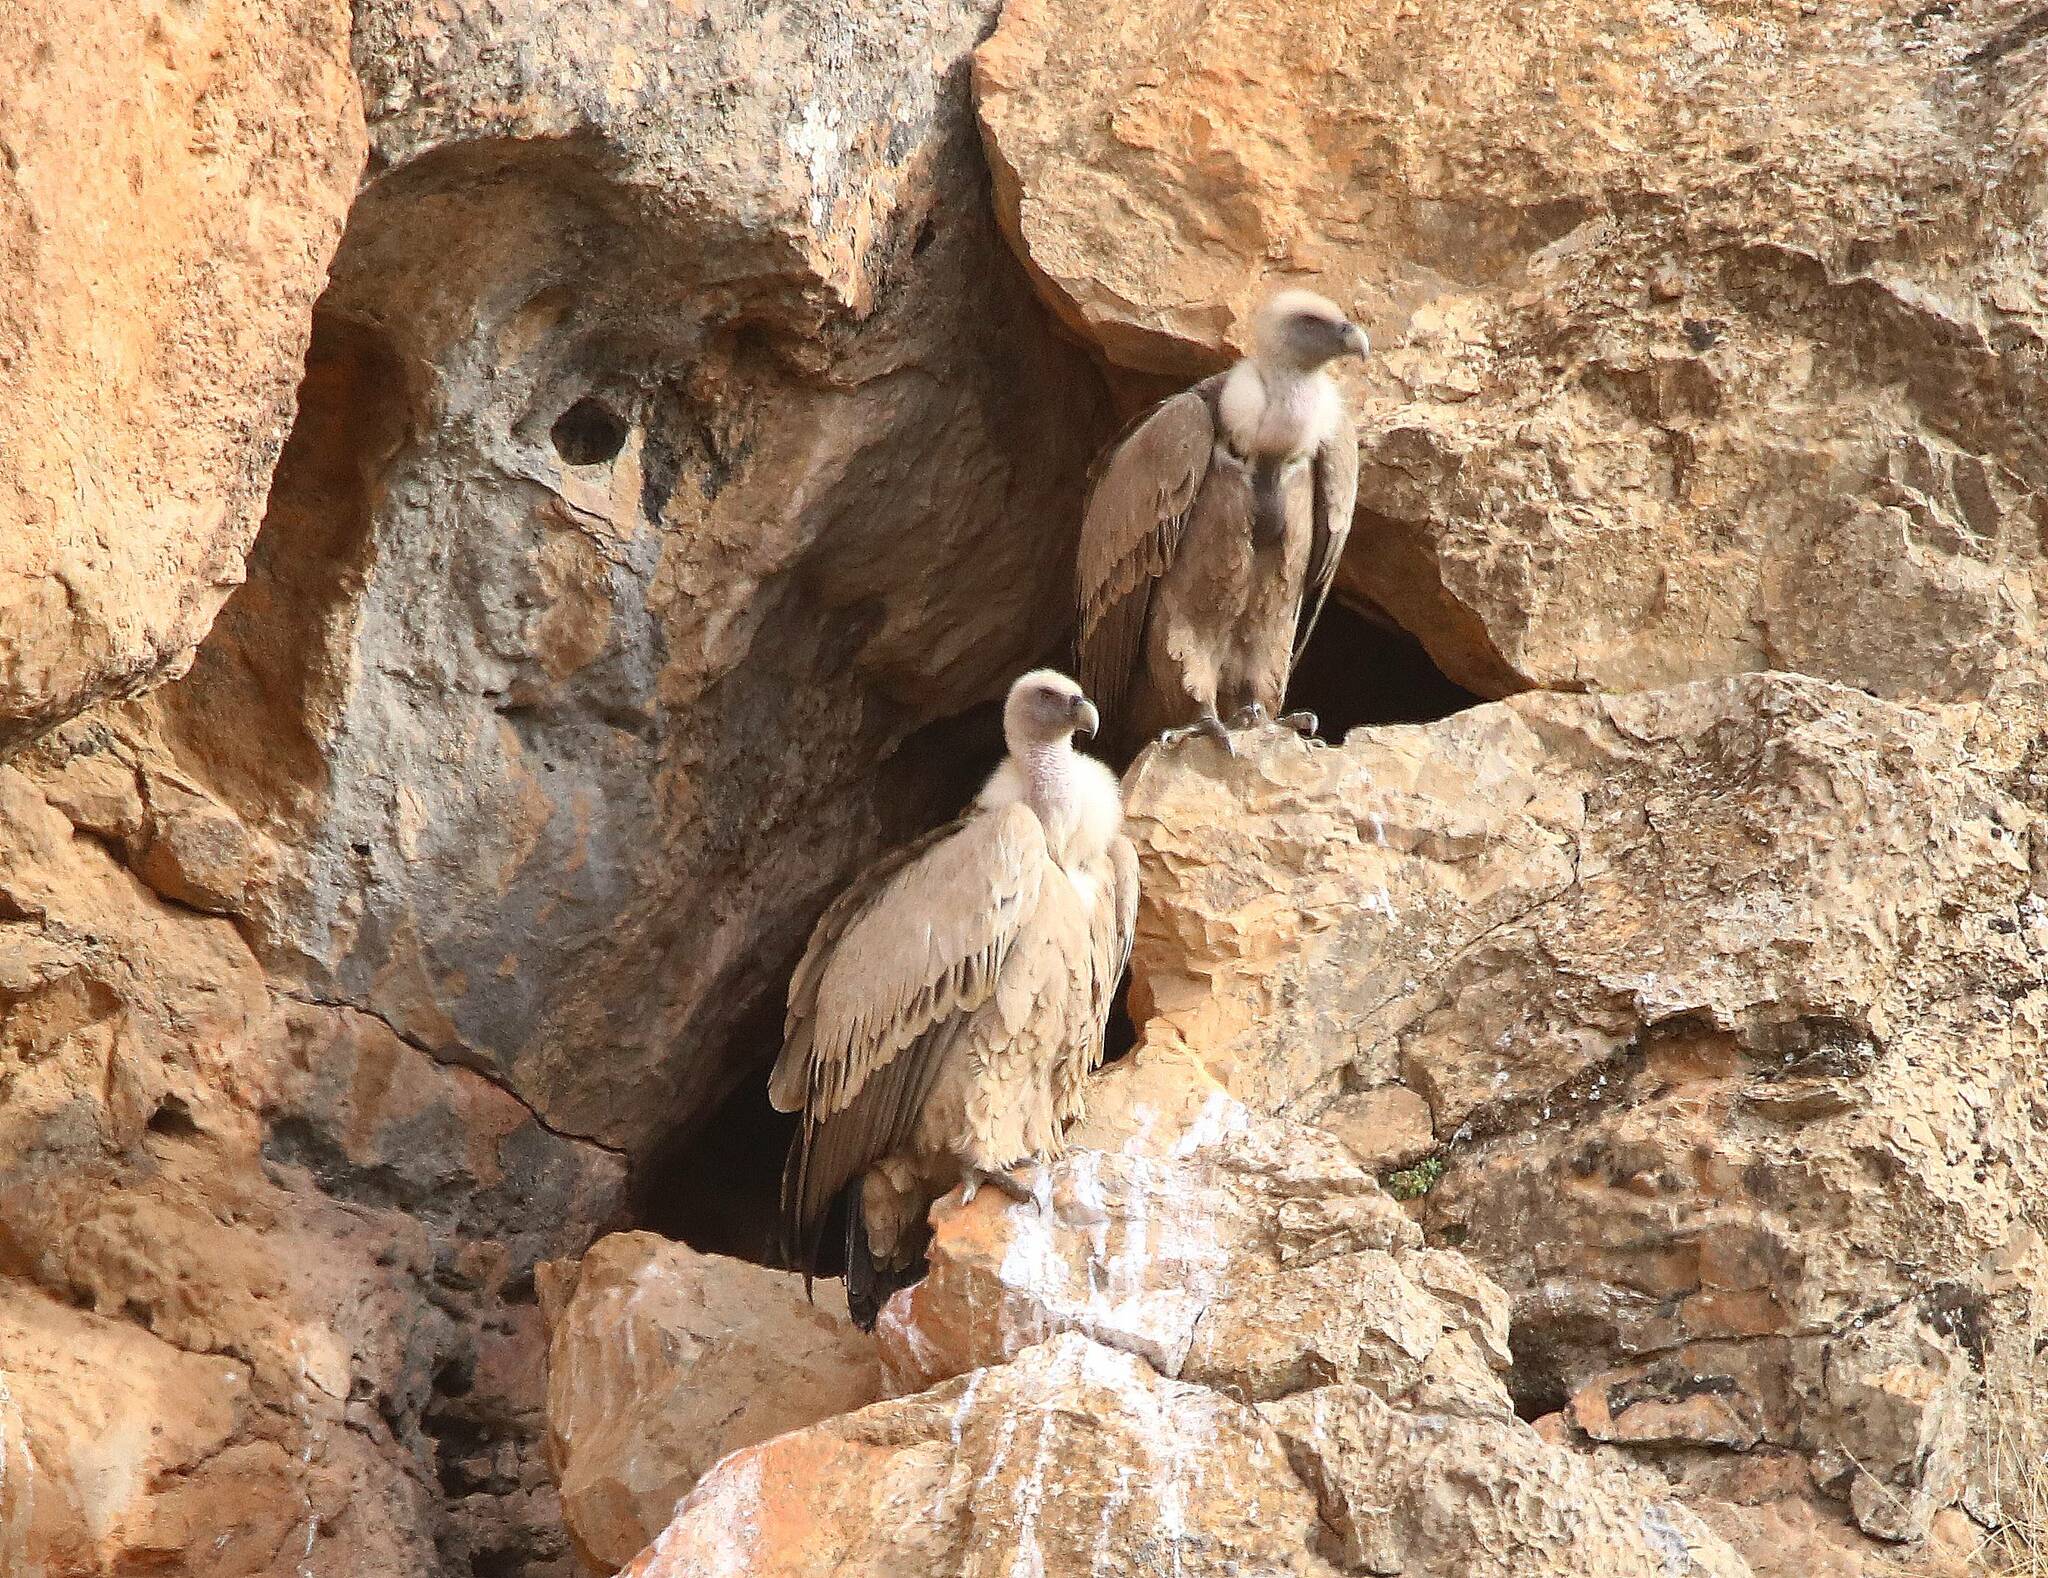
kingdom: Animalia
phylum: Chordata
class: Aves
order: Accipitriformes
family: Accipitridae
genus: Gyps
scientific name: Gyps fulvus
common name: Griffon vulture
